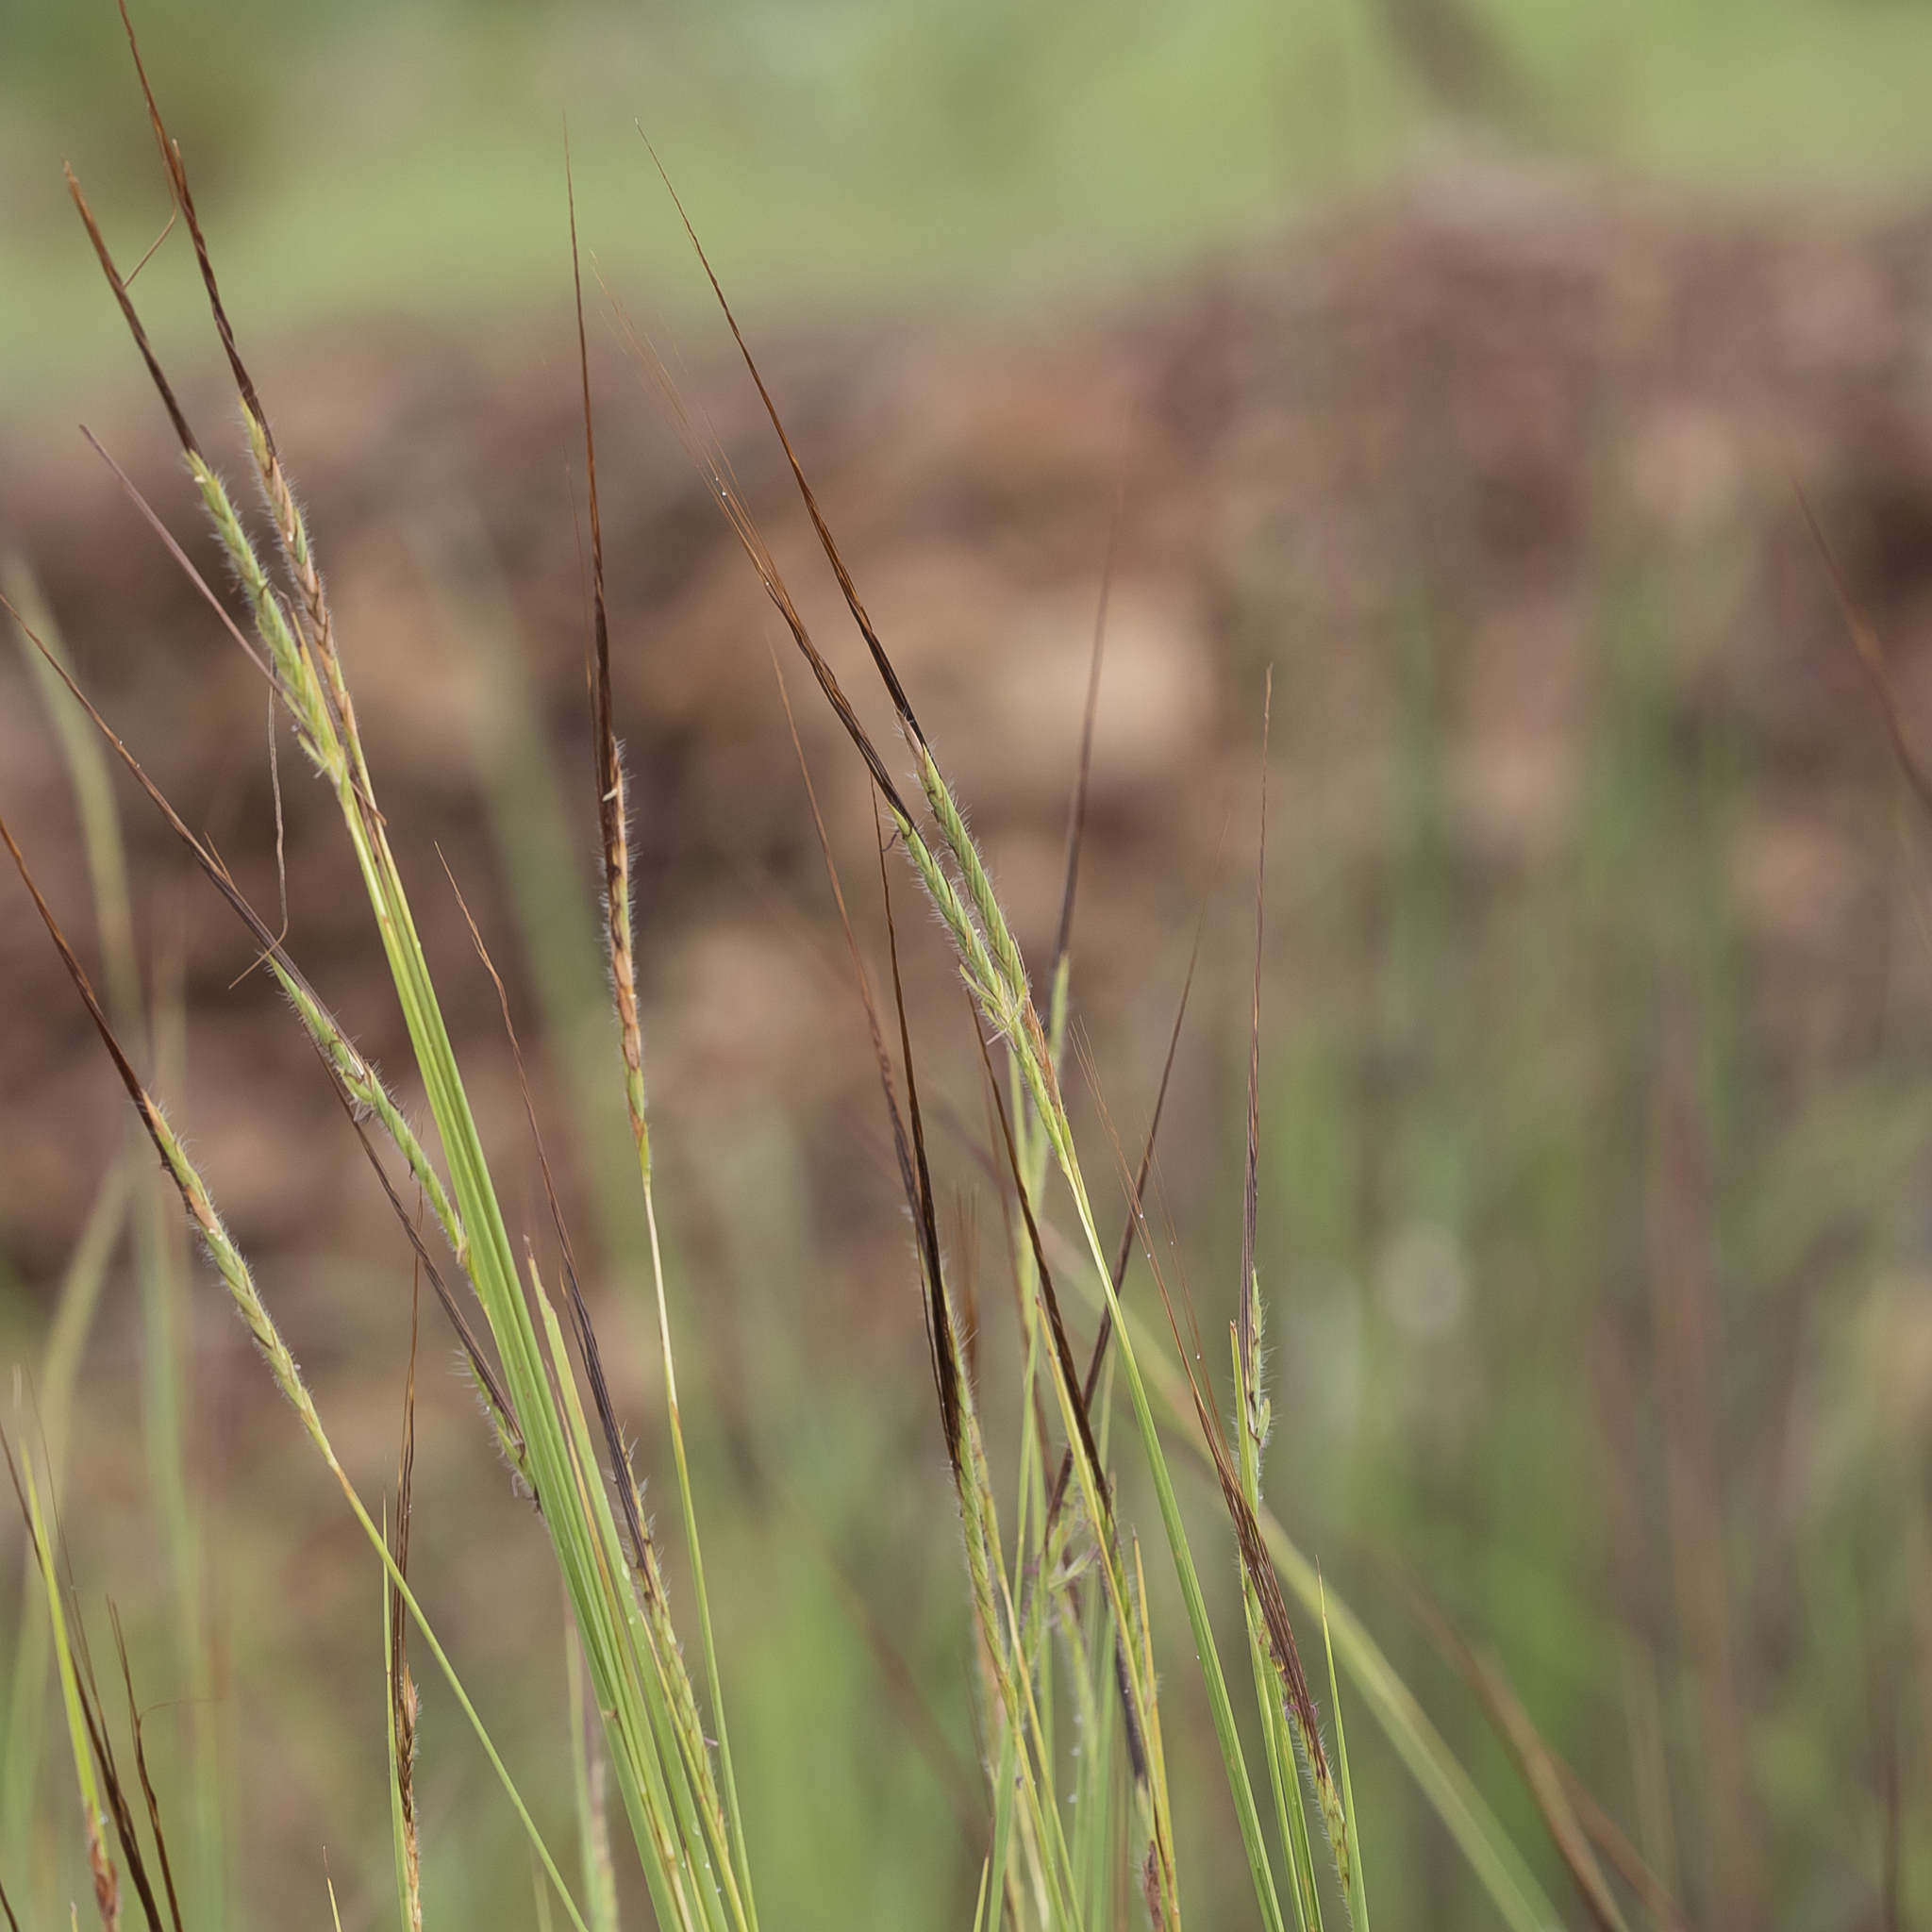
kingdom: Plantae
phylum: Tracheophyta
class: Liliopsida
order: Poales
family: Poaceae
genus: Heteropogon
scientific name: Heteropogon contortus
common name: Tanglehead
